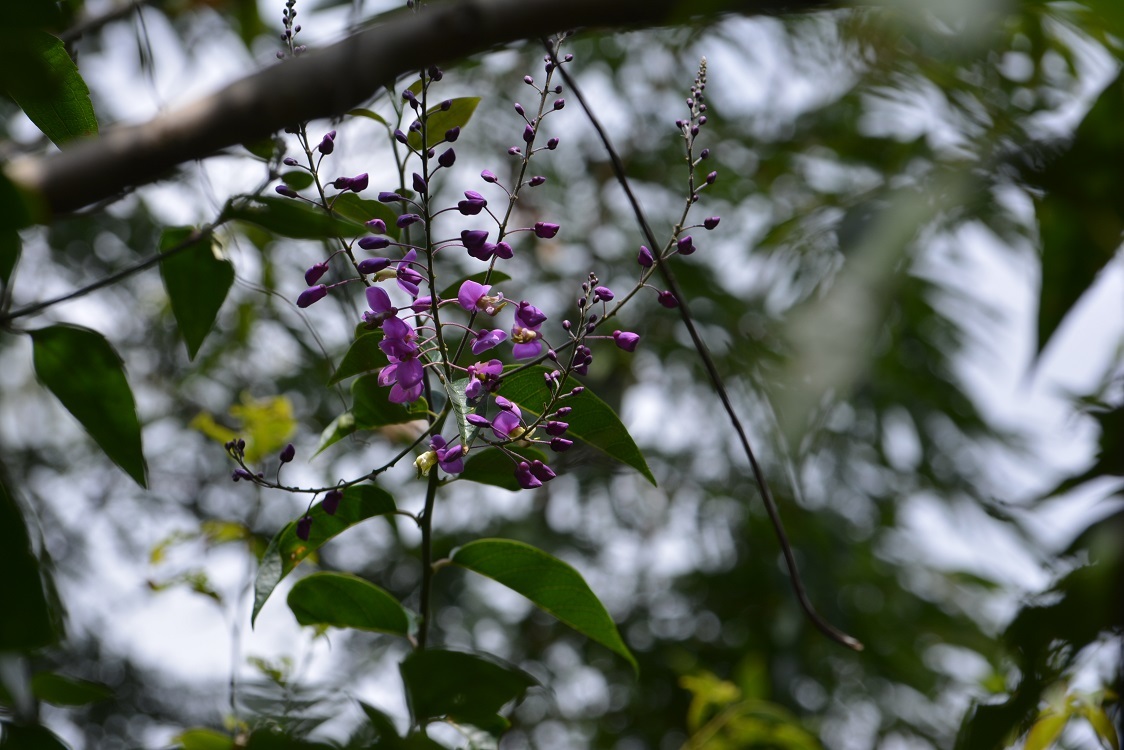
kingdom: Plantae
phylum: Tracheophyta
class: Magnoliopsida
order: Fabales
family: Polygalaceae
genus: Asemeia
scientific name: Asemeia floribunda
